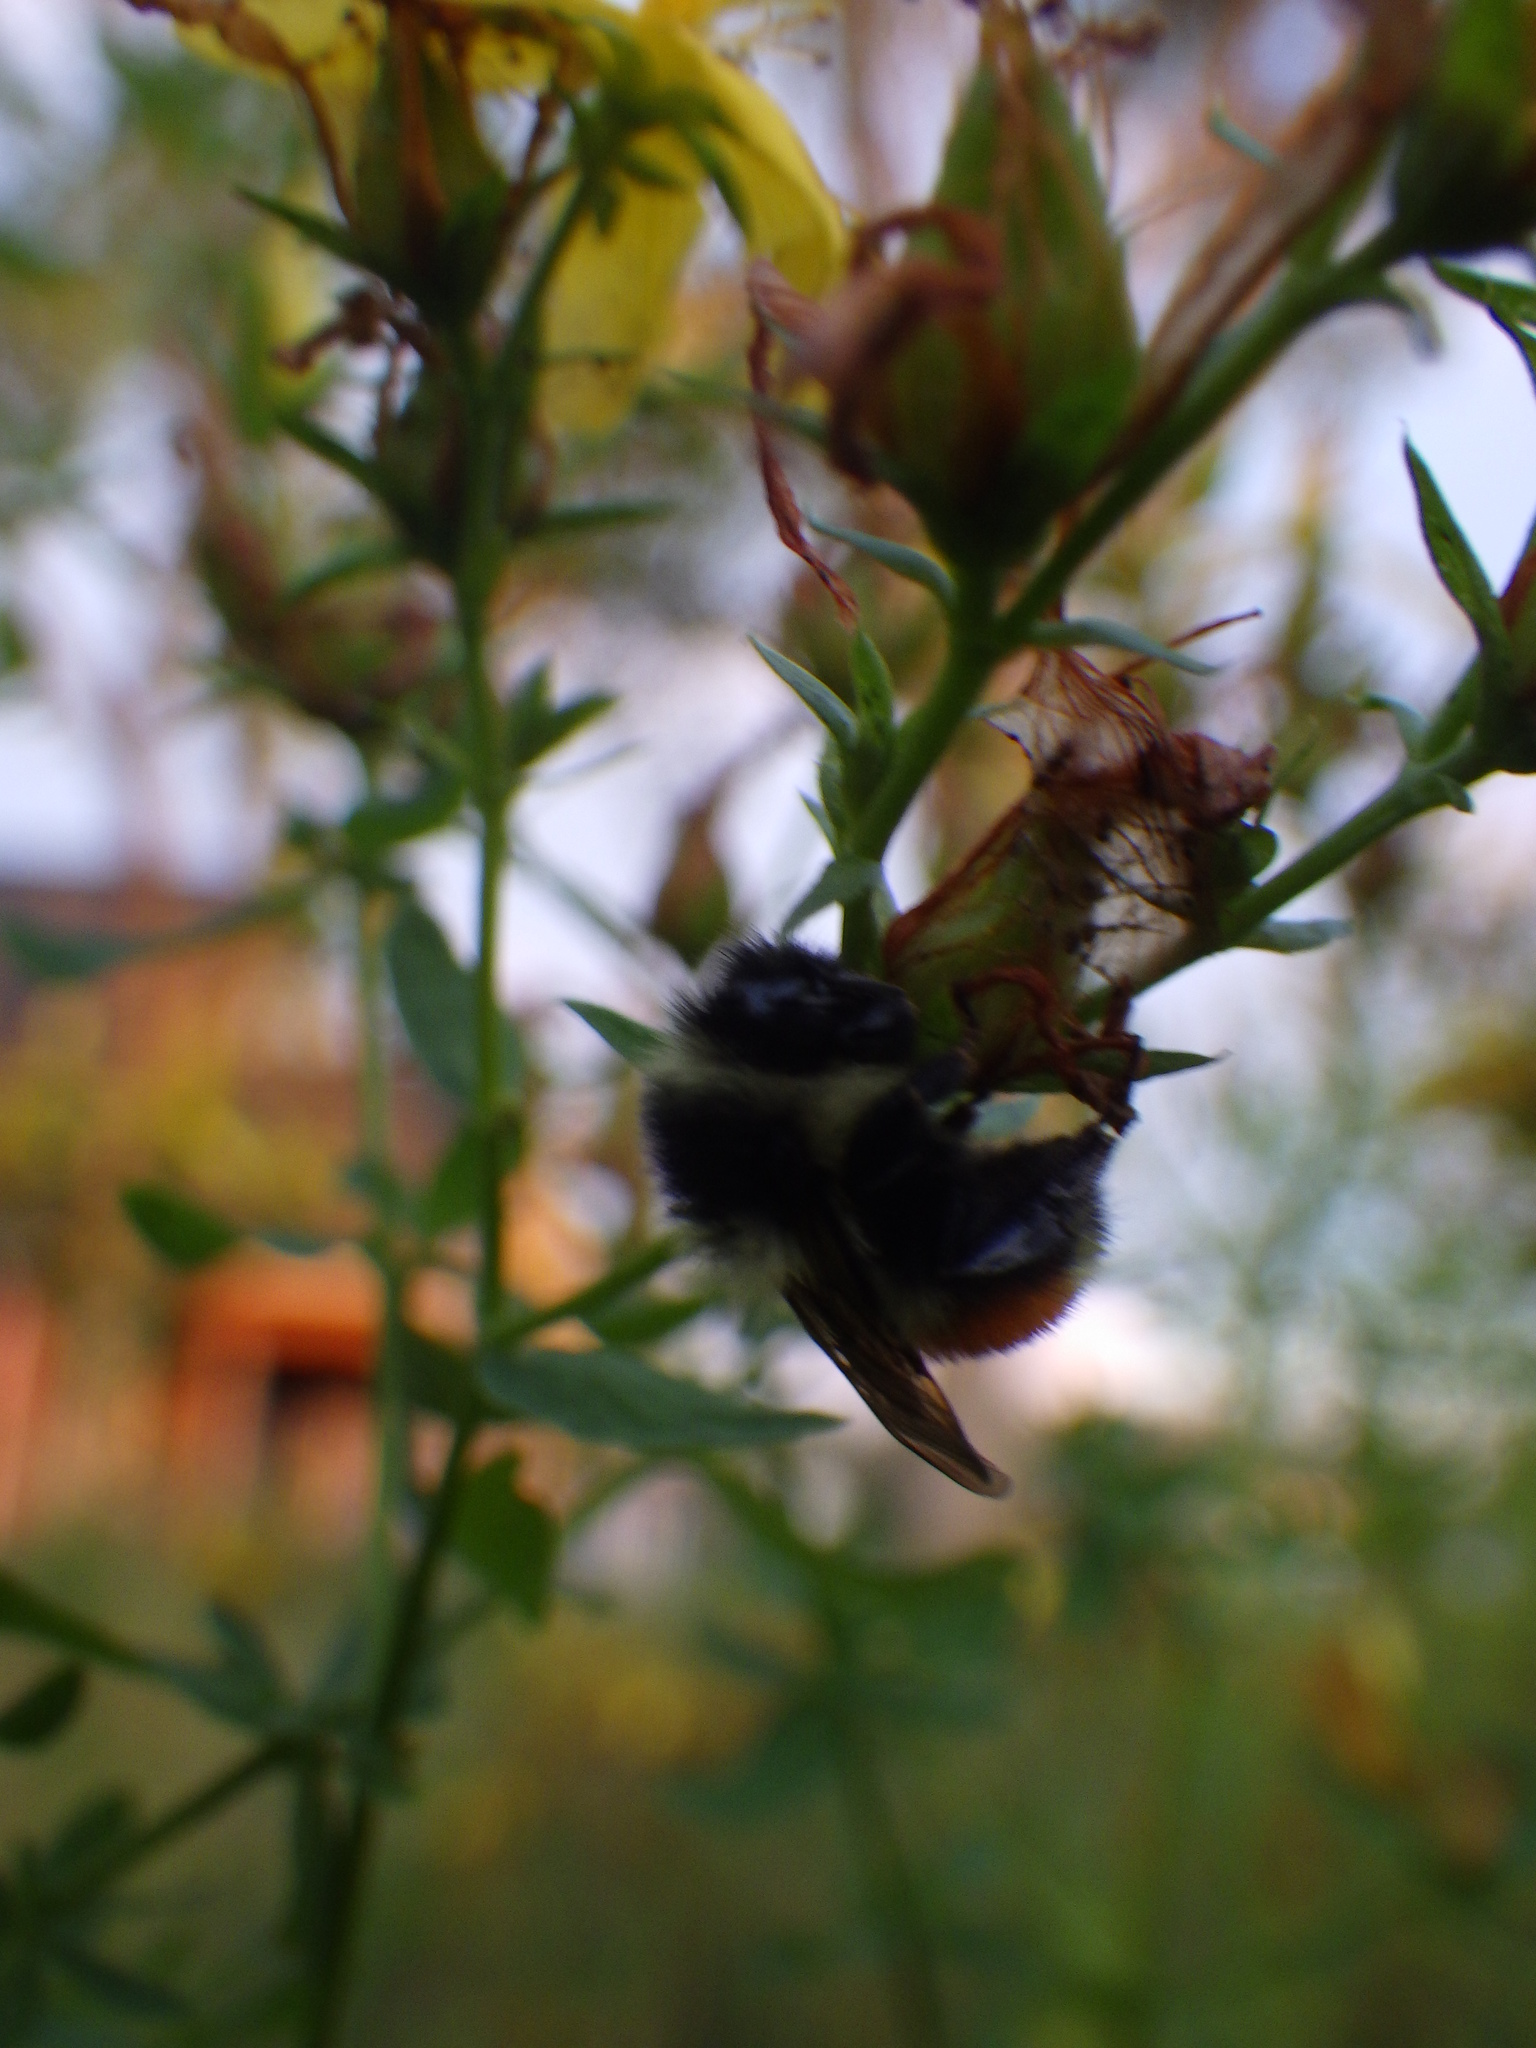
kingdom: Animalia
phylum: Arthropoda
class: Insecta
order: Hymenoptera
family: Apidae
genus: Bombus
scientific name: Bombus ternarius
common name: Tri-colored bumble bee
